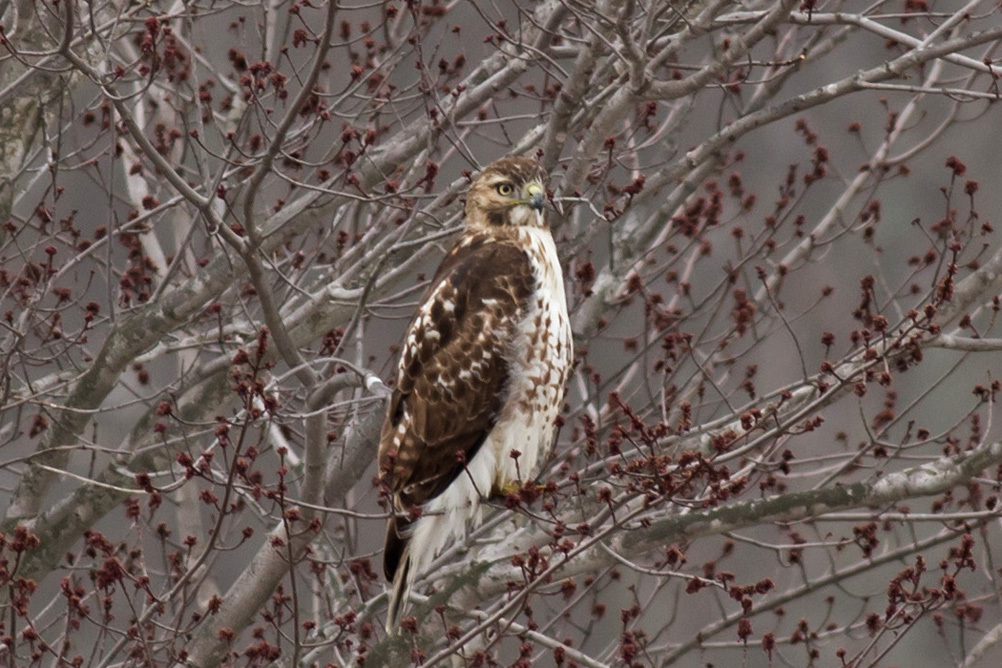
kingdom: Animalia
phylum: Chordata
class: Aves
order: Accipitriformes
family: Accipitridae
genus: Buteo
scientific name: Buteo jamaicensis
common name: Red-tailed hawk
